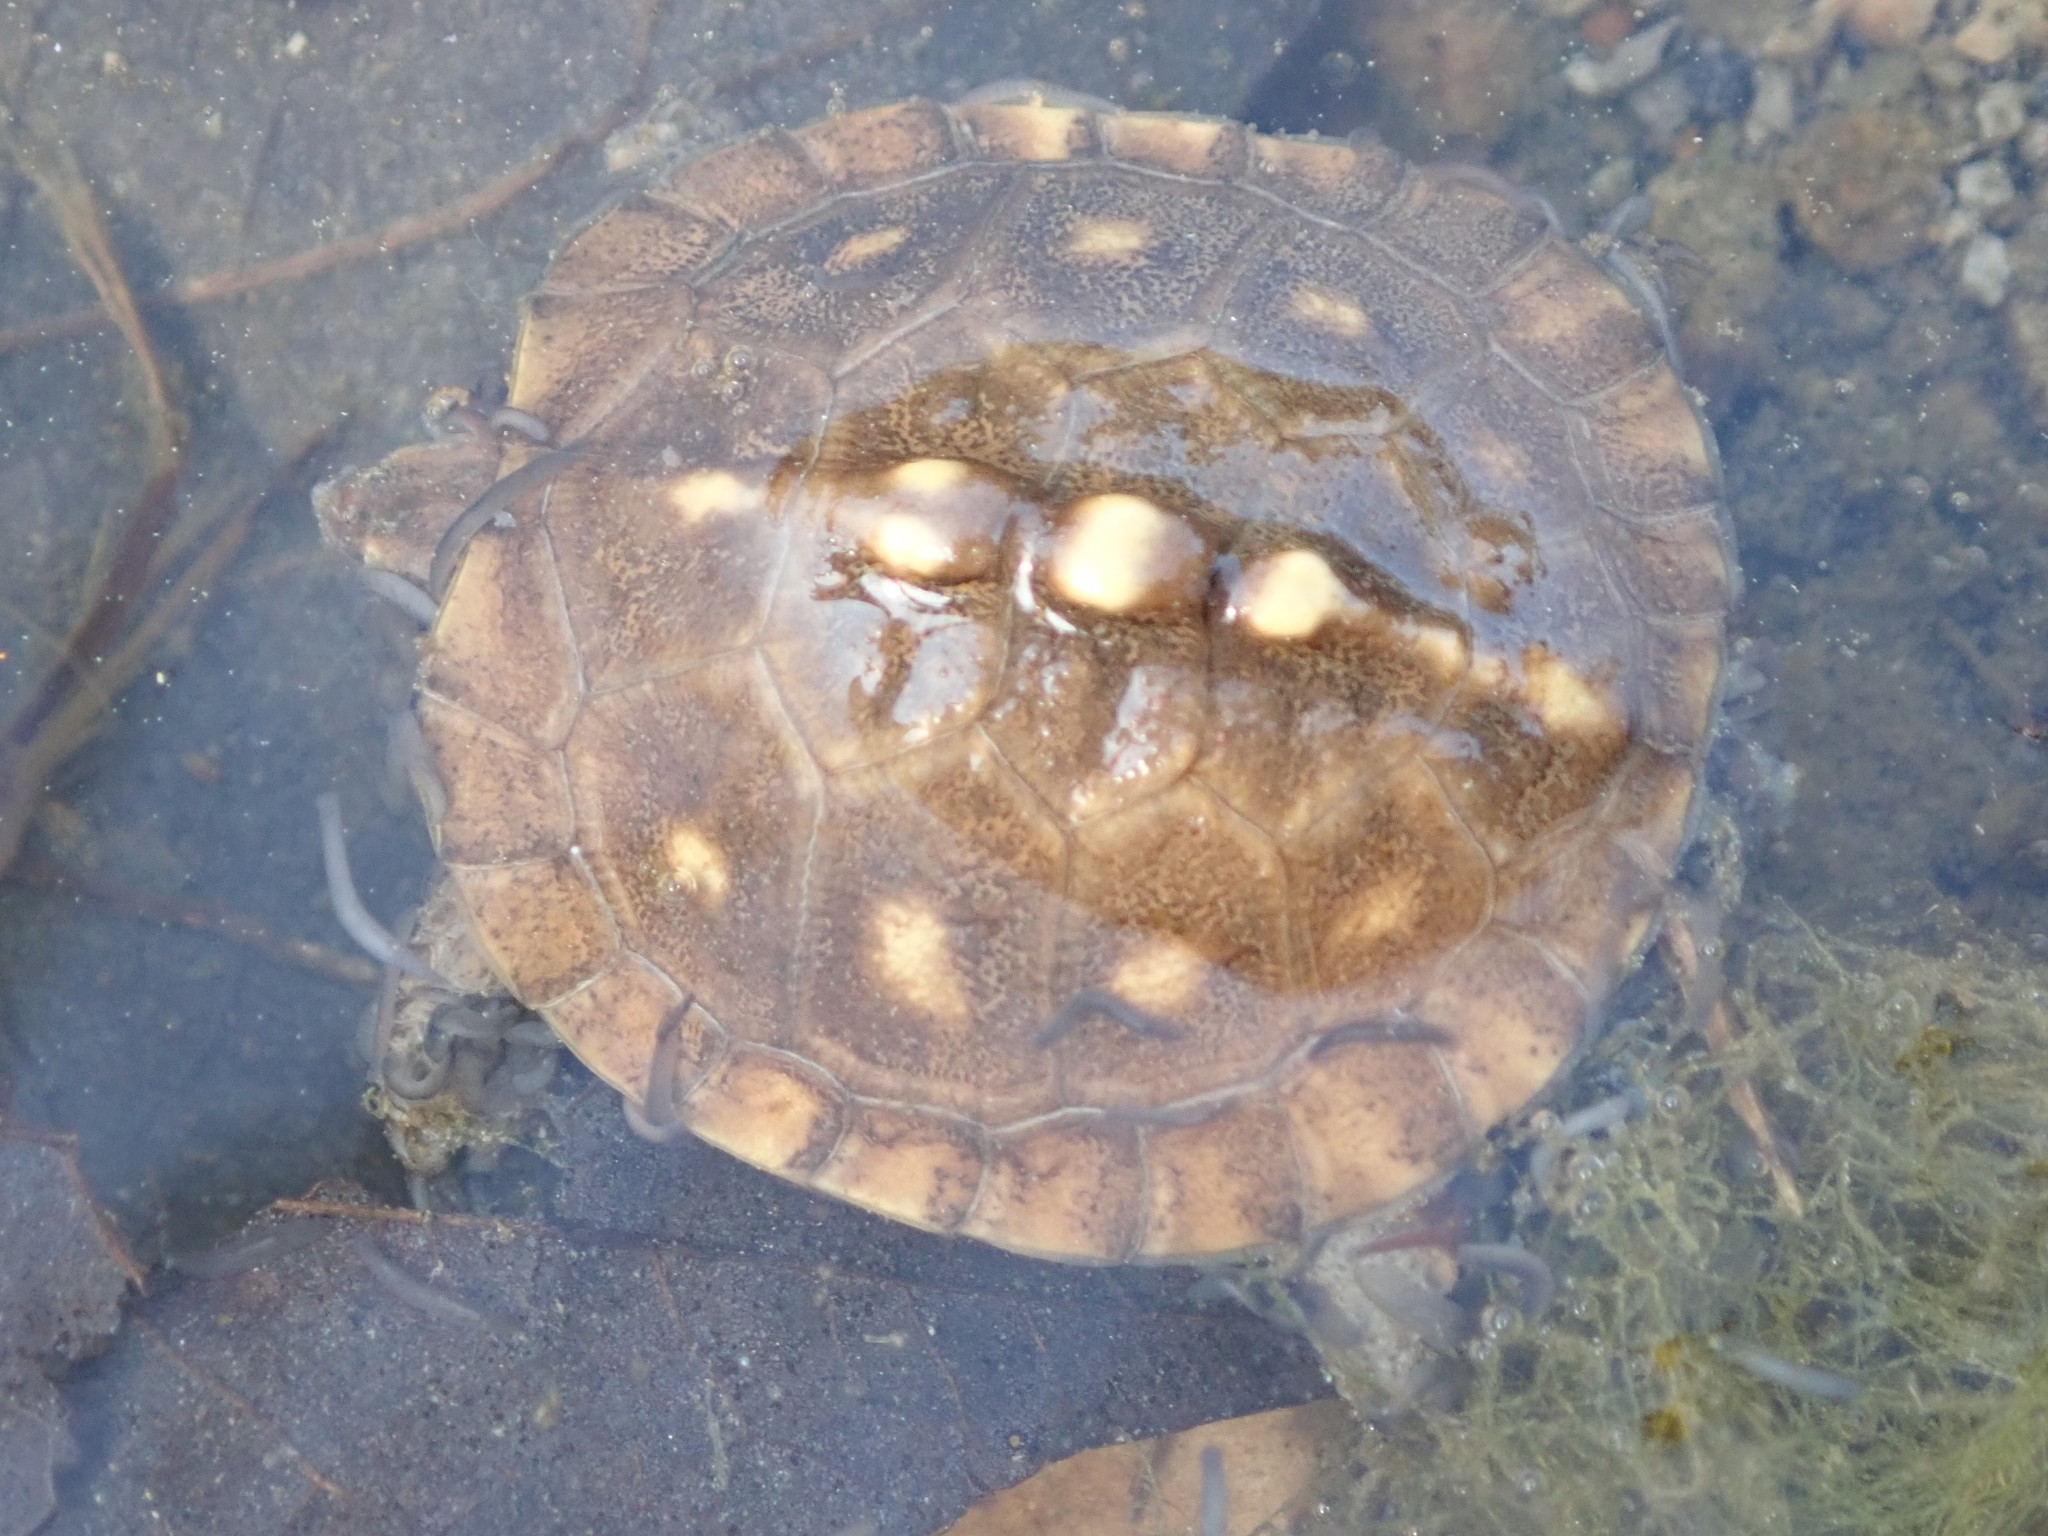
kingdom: Animalia
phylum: Chordata
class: Testudines
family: Emydidae
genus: Terrapene
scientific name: Terrapene carolina
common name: Common box turtle
